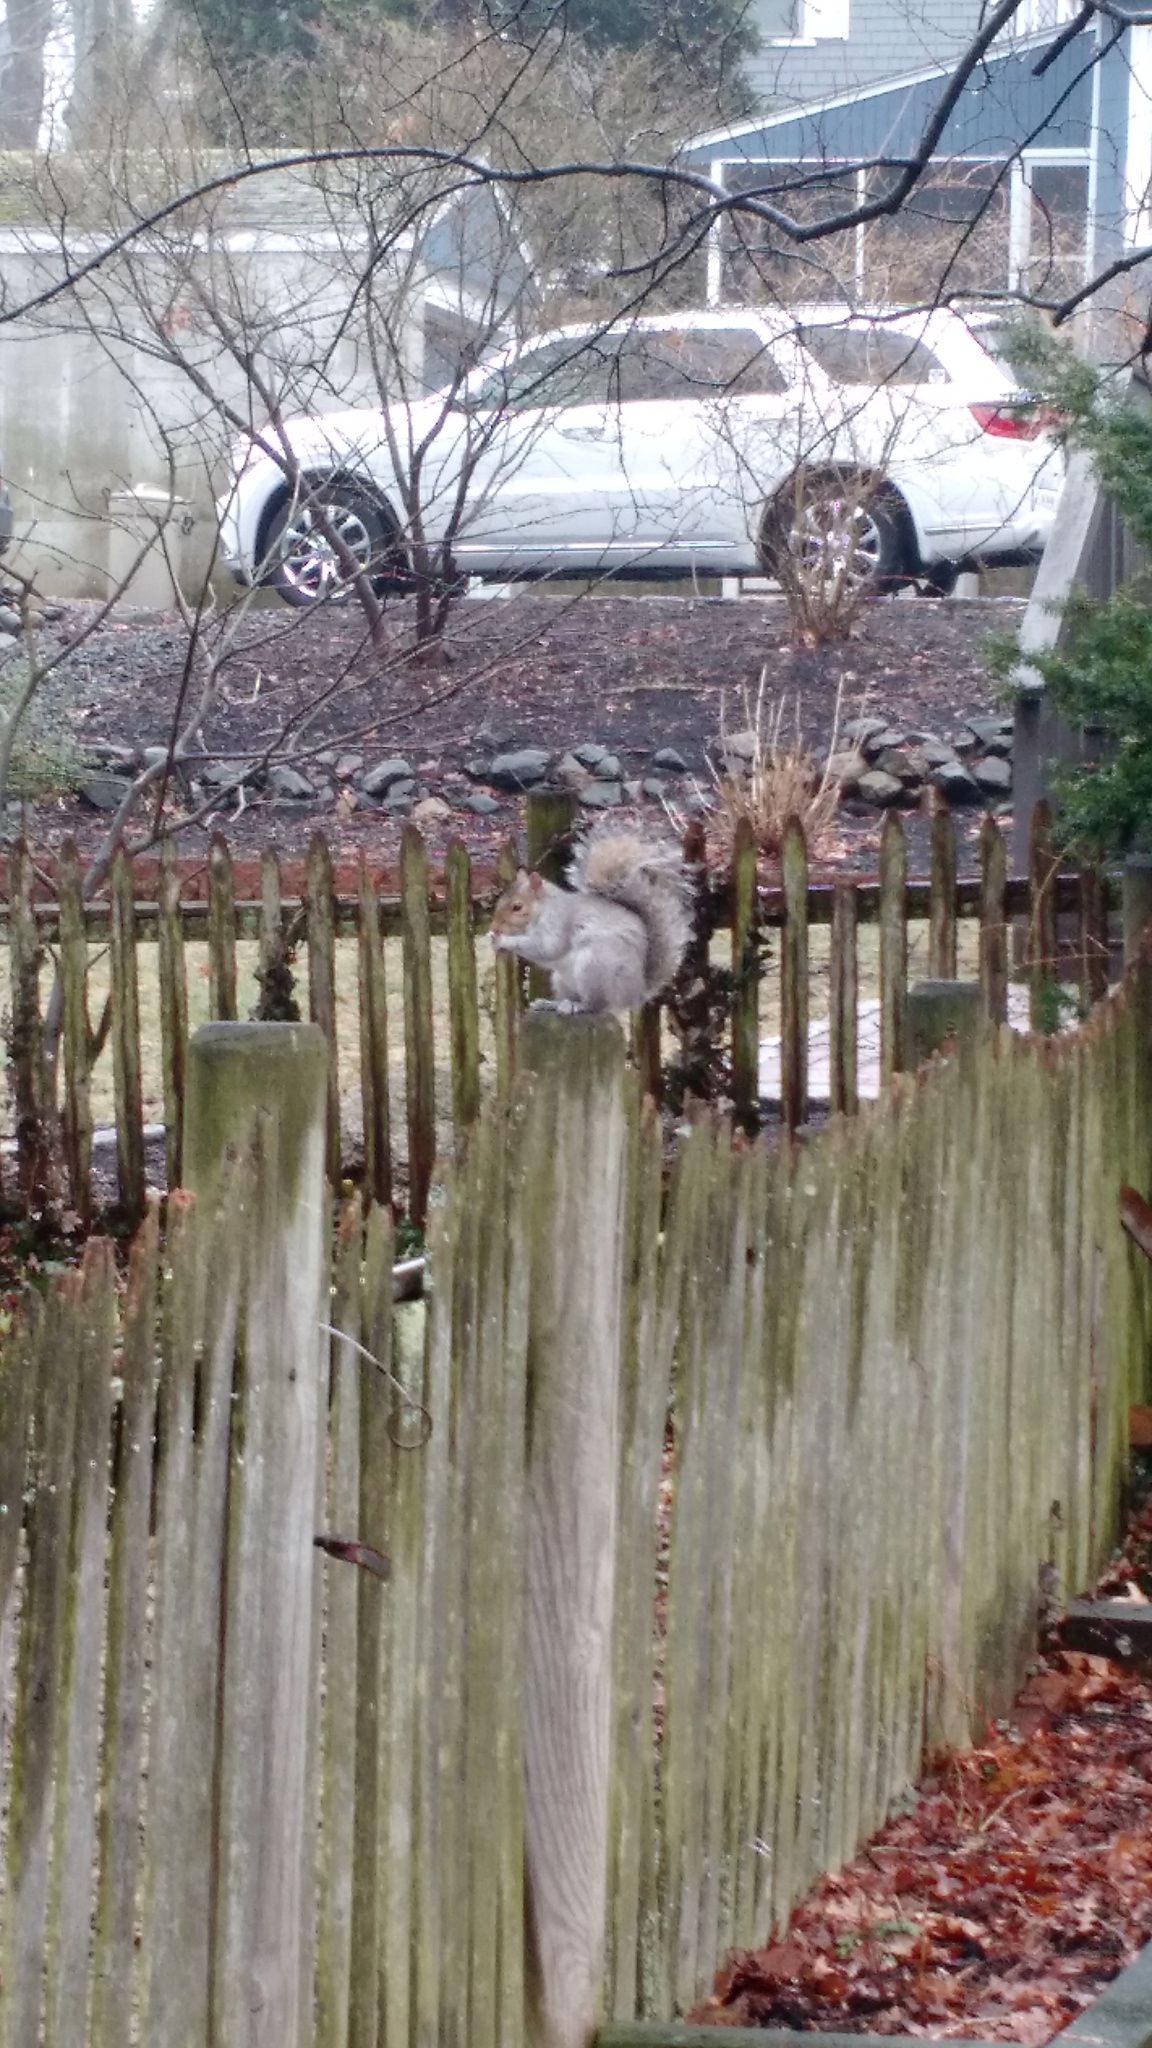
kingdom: Animalia
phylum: Chordata
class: Mammalia
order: Rodentia
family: Sciuridae
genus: Sciurus
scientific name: Sciurus carolinensis
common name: Eastern gray squirrel
